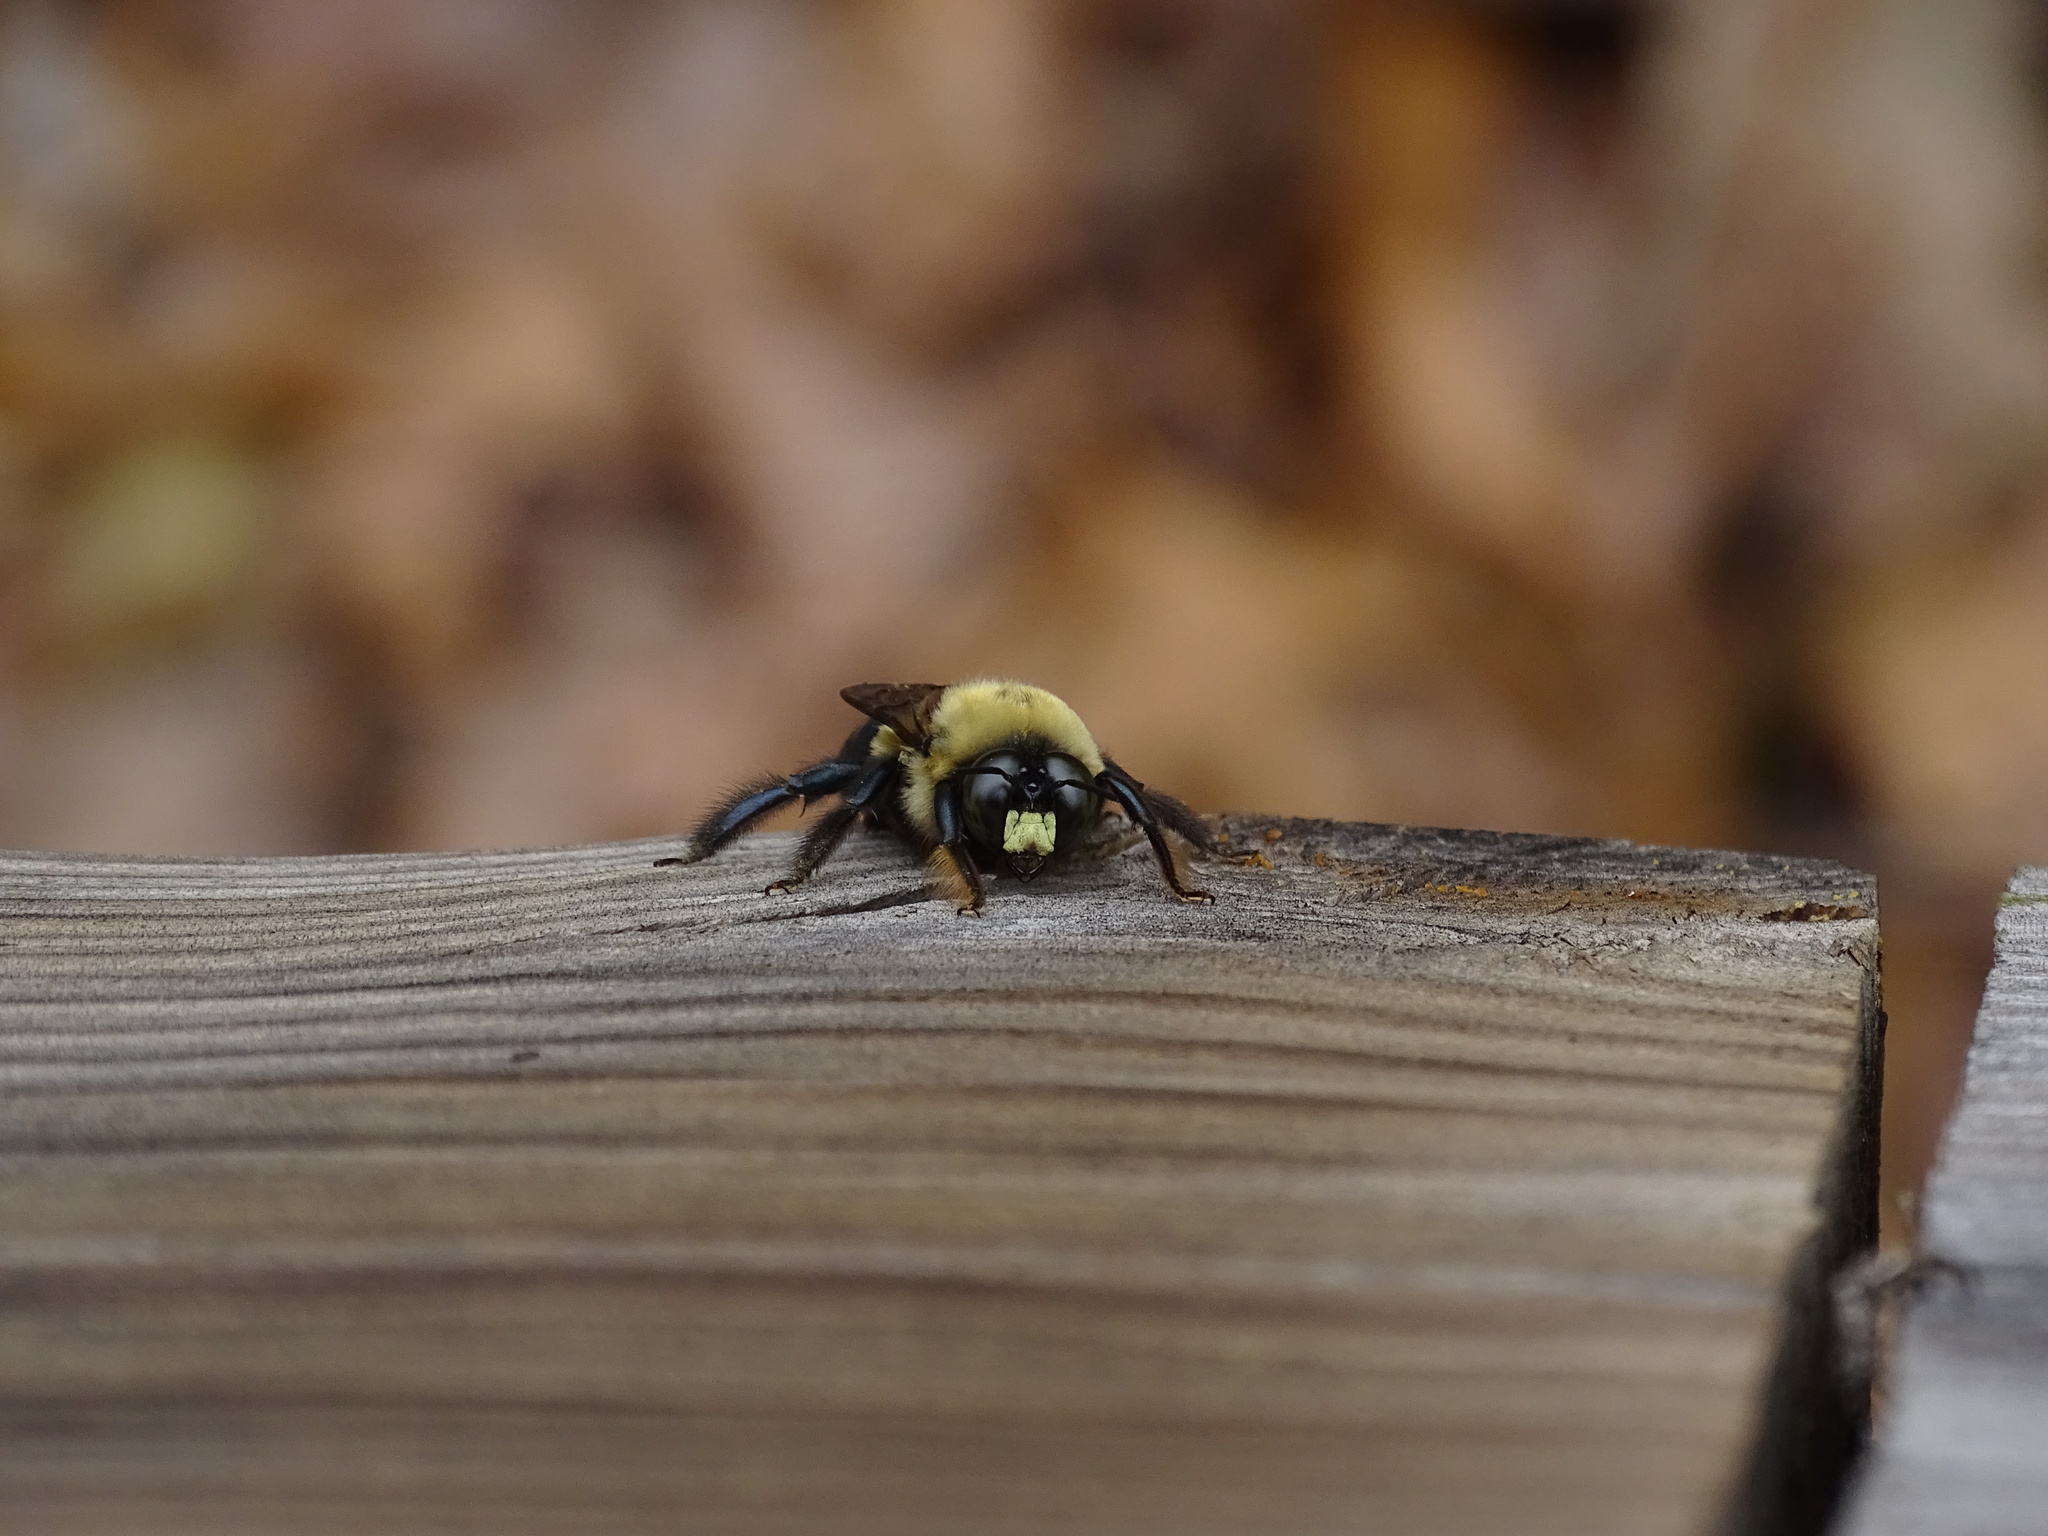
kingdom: Animalia
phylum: Arthropoda
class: Insecta
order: Hymenoptera
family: Apidae
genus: Xylocopa
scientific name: Xylocopa virginica
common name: Carpenter bee
